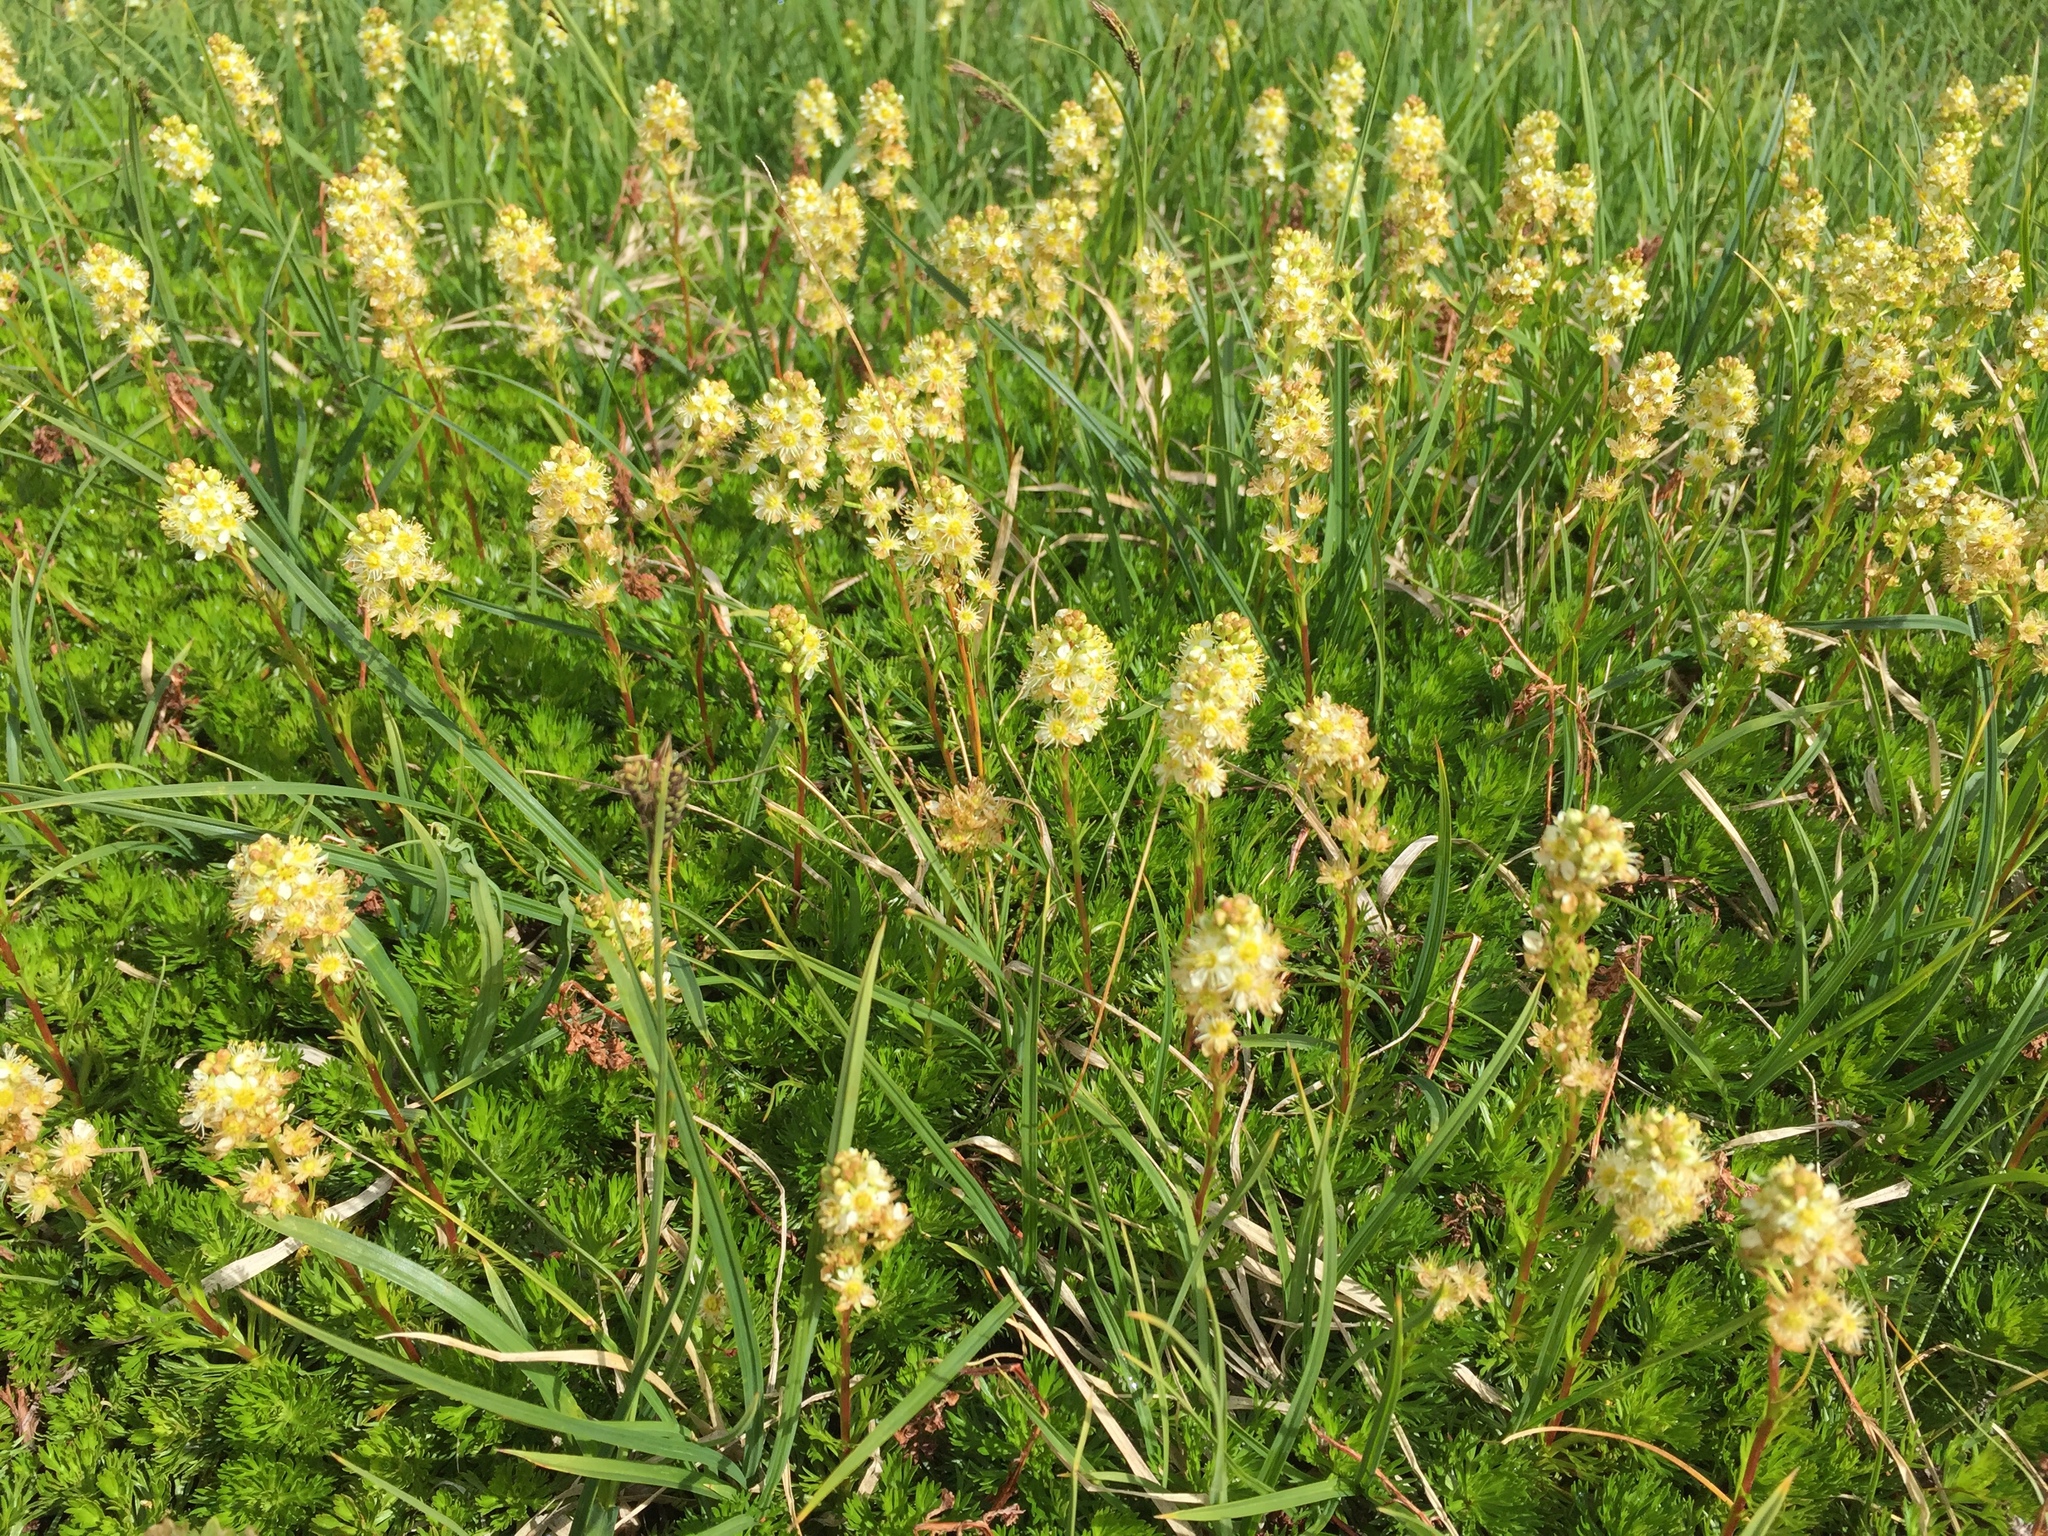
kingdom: Plantae
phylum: Tracheophyta
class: Magnoliopsida
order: Rosales
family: Rosaceae
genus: Luetkea
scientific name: Luetkea pectinata
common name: Partridgefoot
